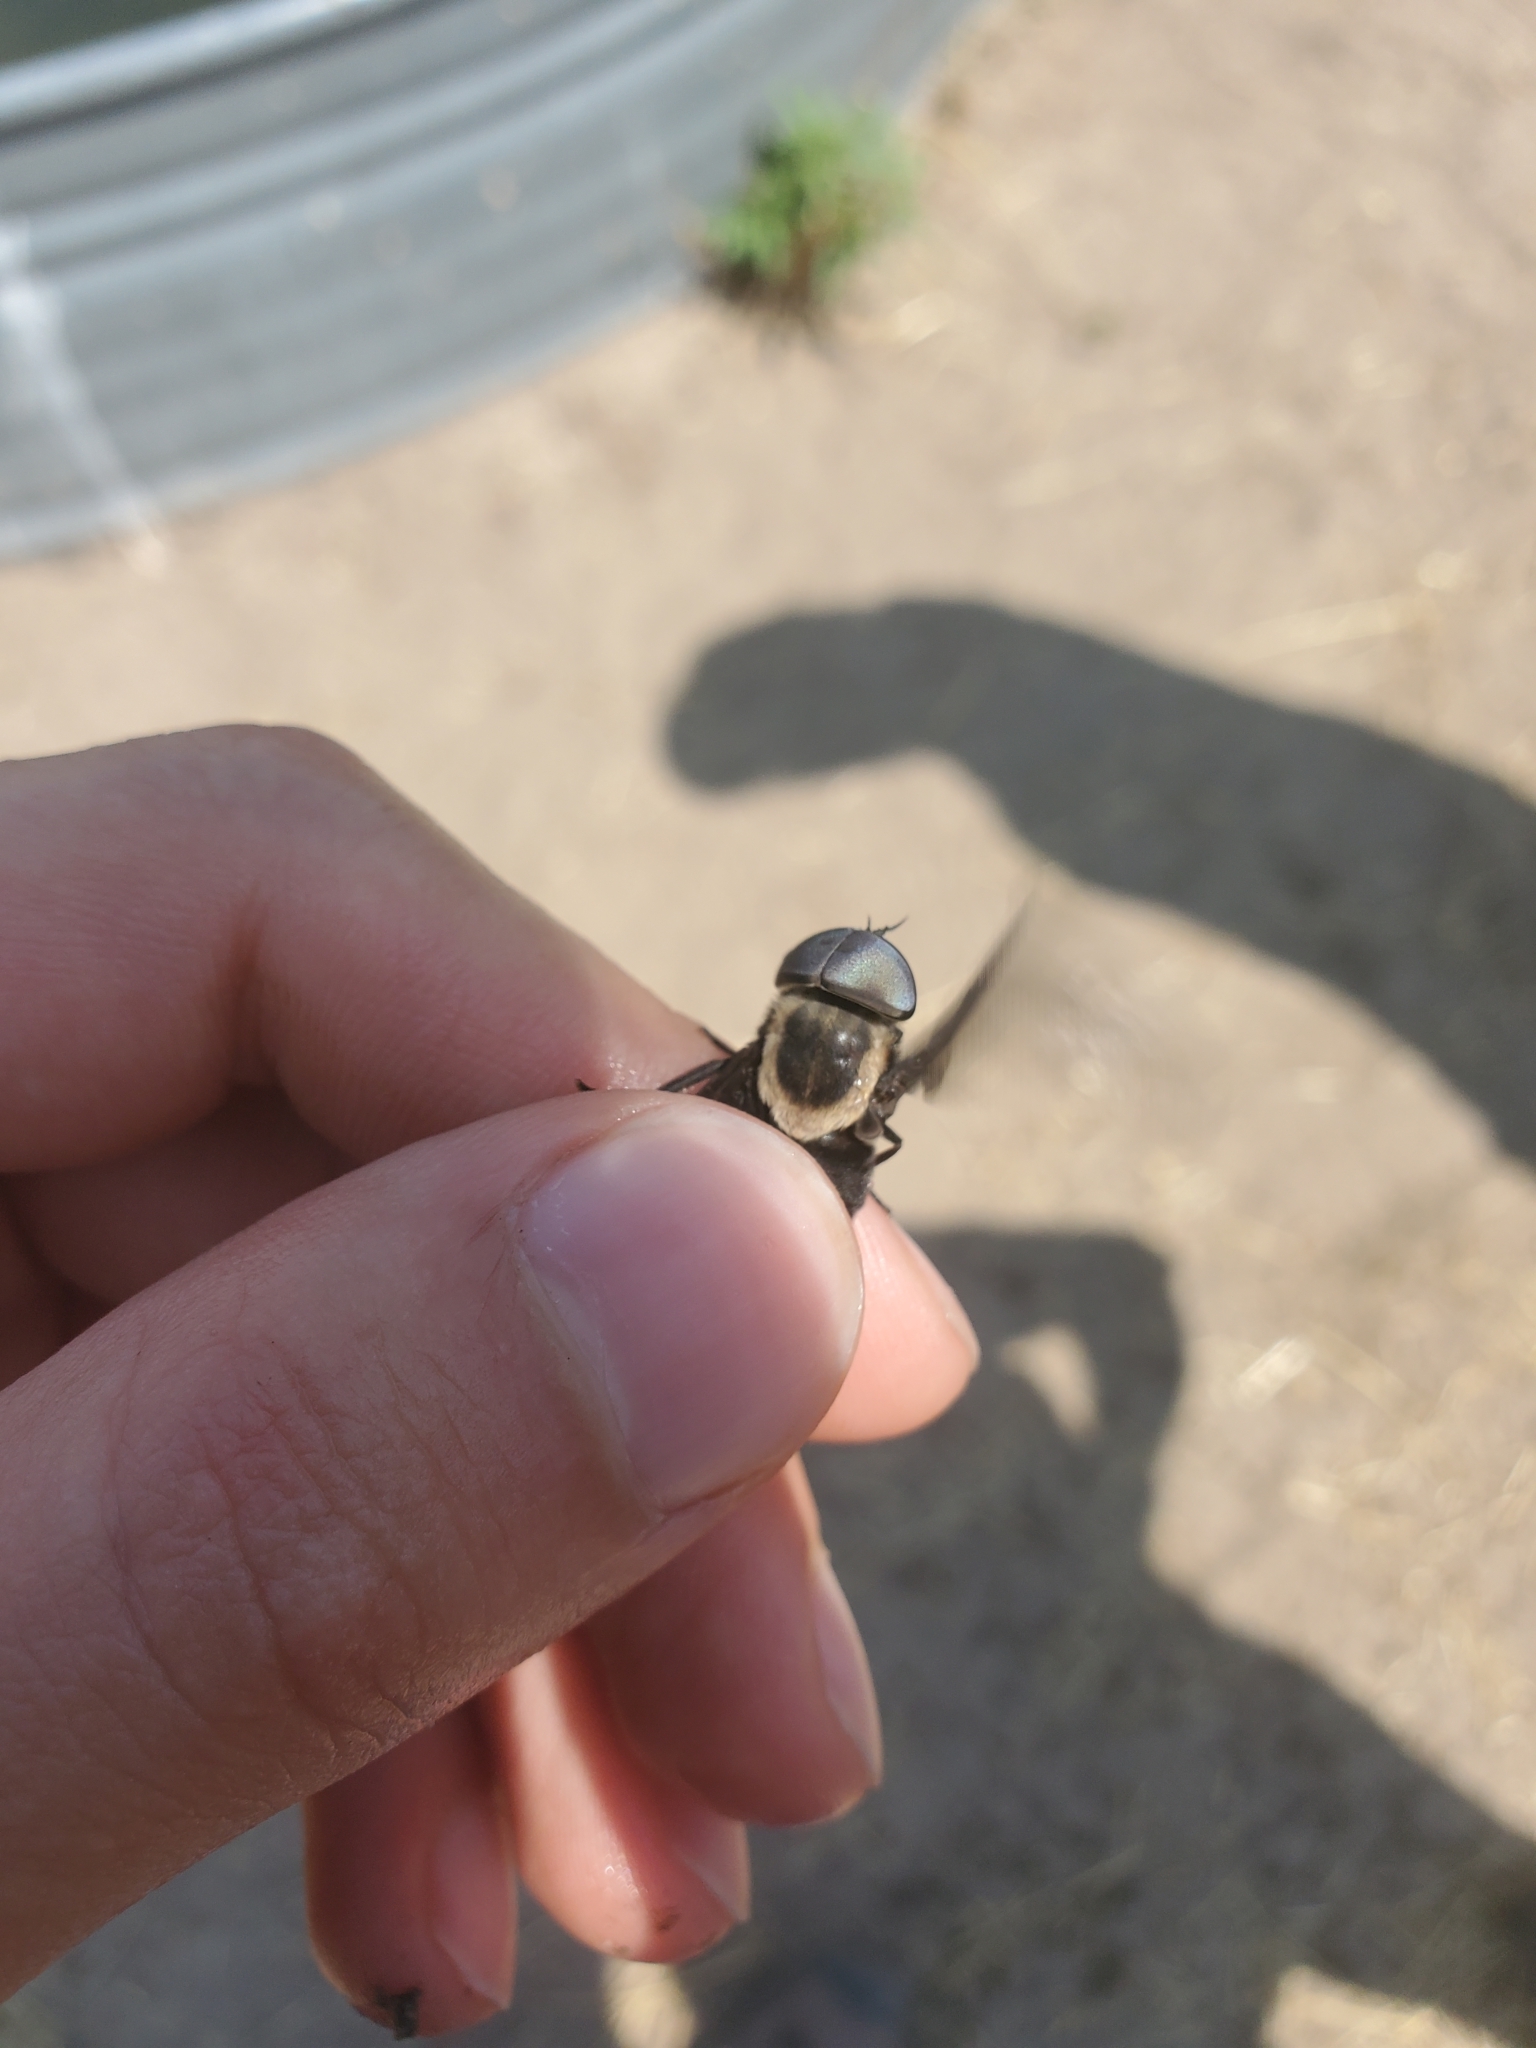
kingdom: Animalia
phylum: Arthropoda
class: Insecta
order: Diptera
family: Tabanidae
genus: Tabanus
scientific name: Tabanus punctifer
